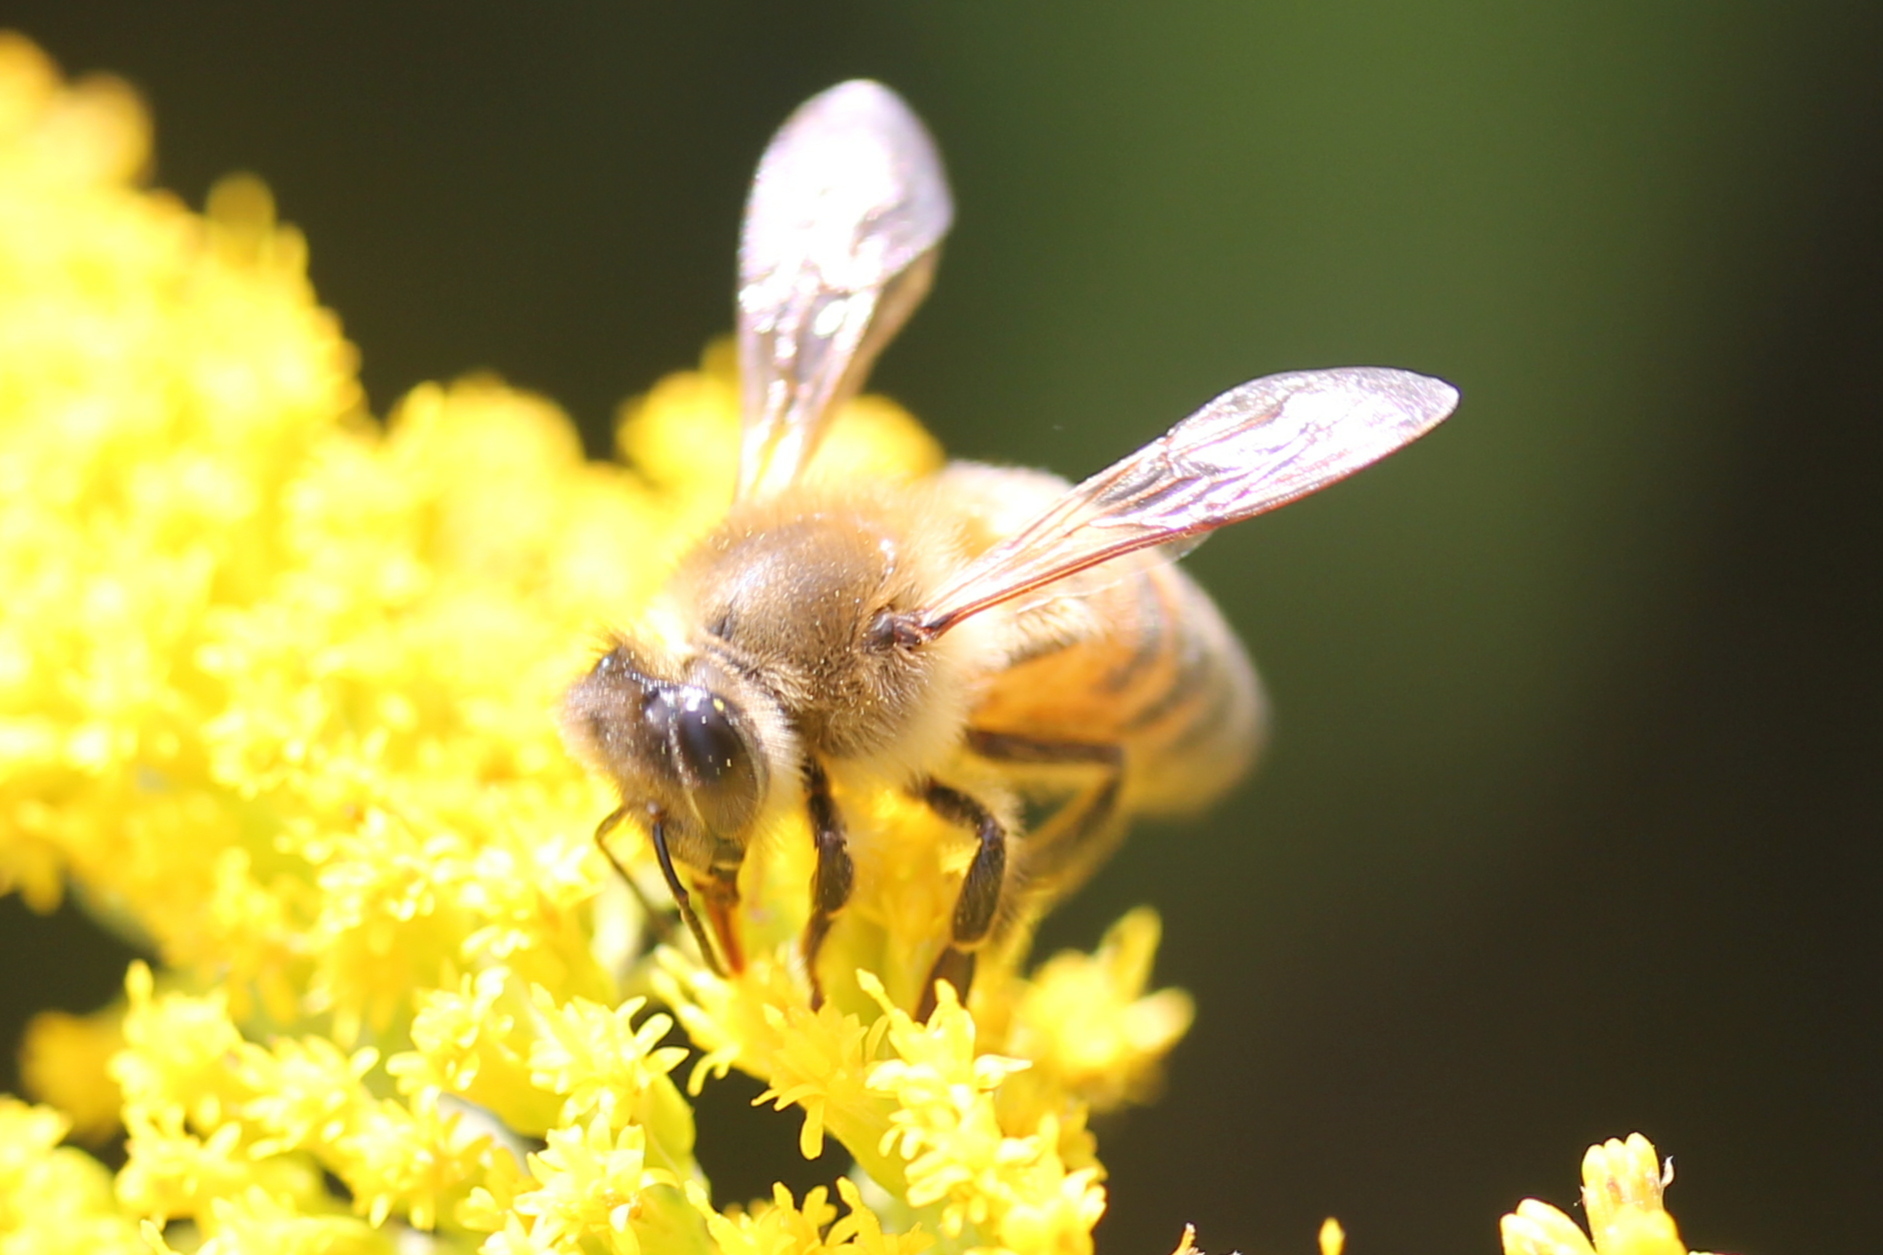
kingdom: Animalia
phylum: Arthropoda
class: Insecta
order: Hymenoptera
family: Apidae
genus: Apis
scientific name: Apis mellifera
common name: Honey bee
